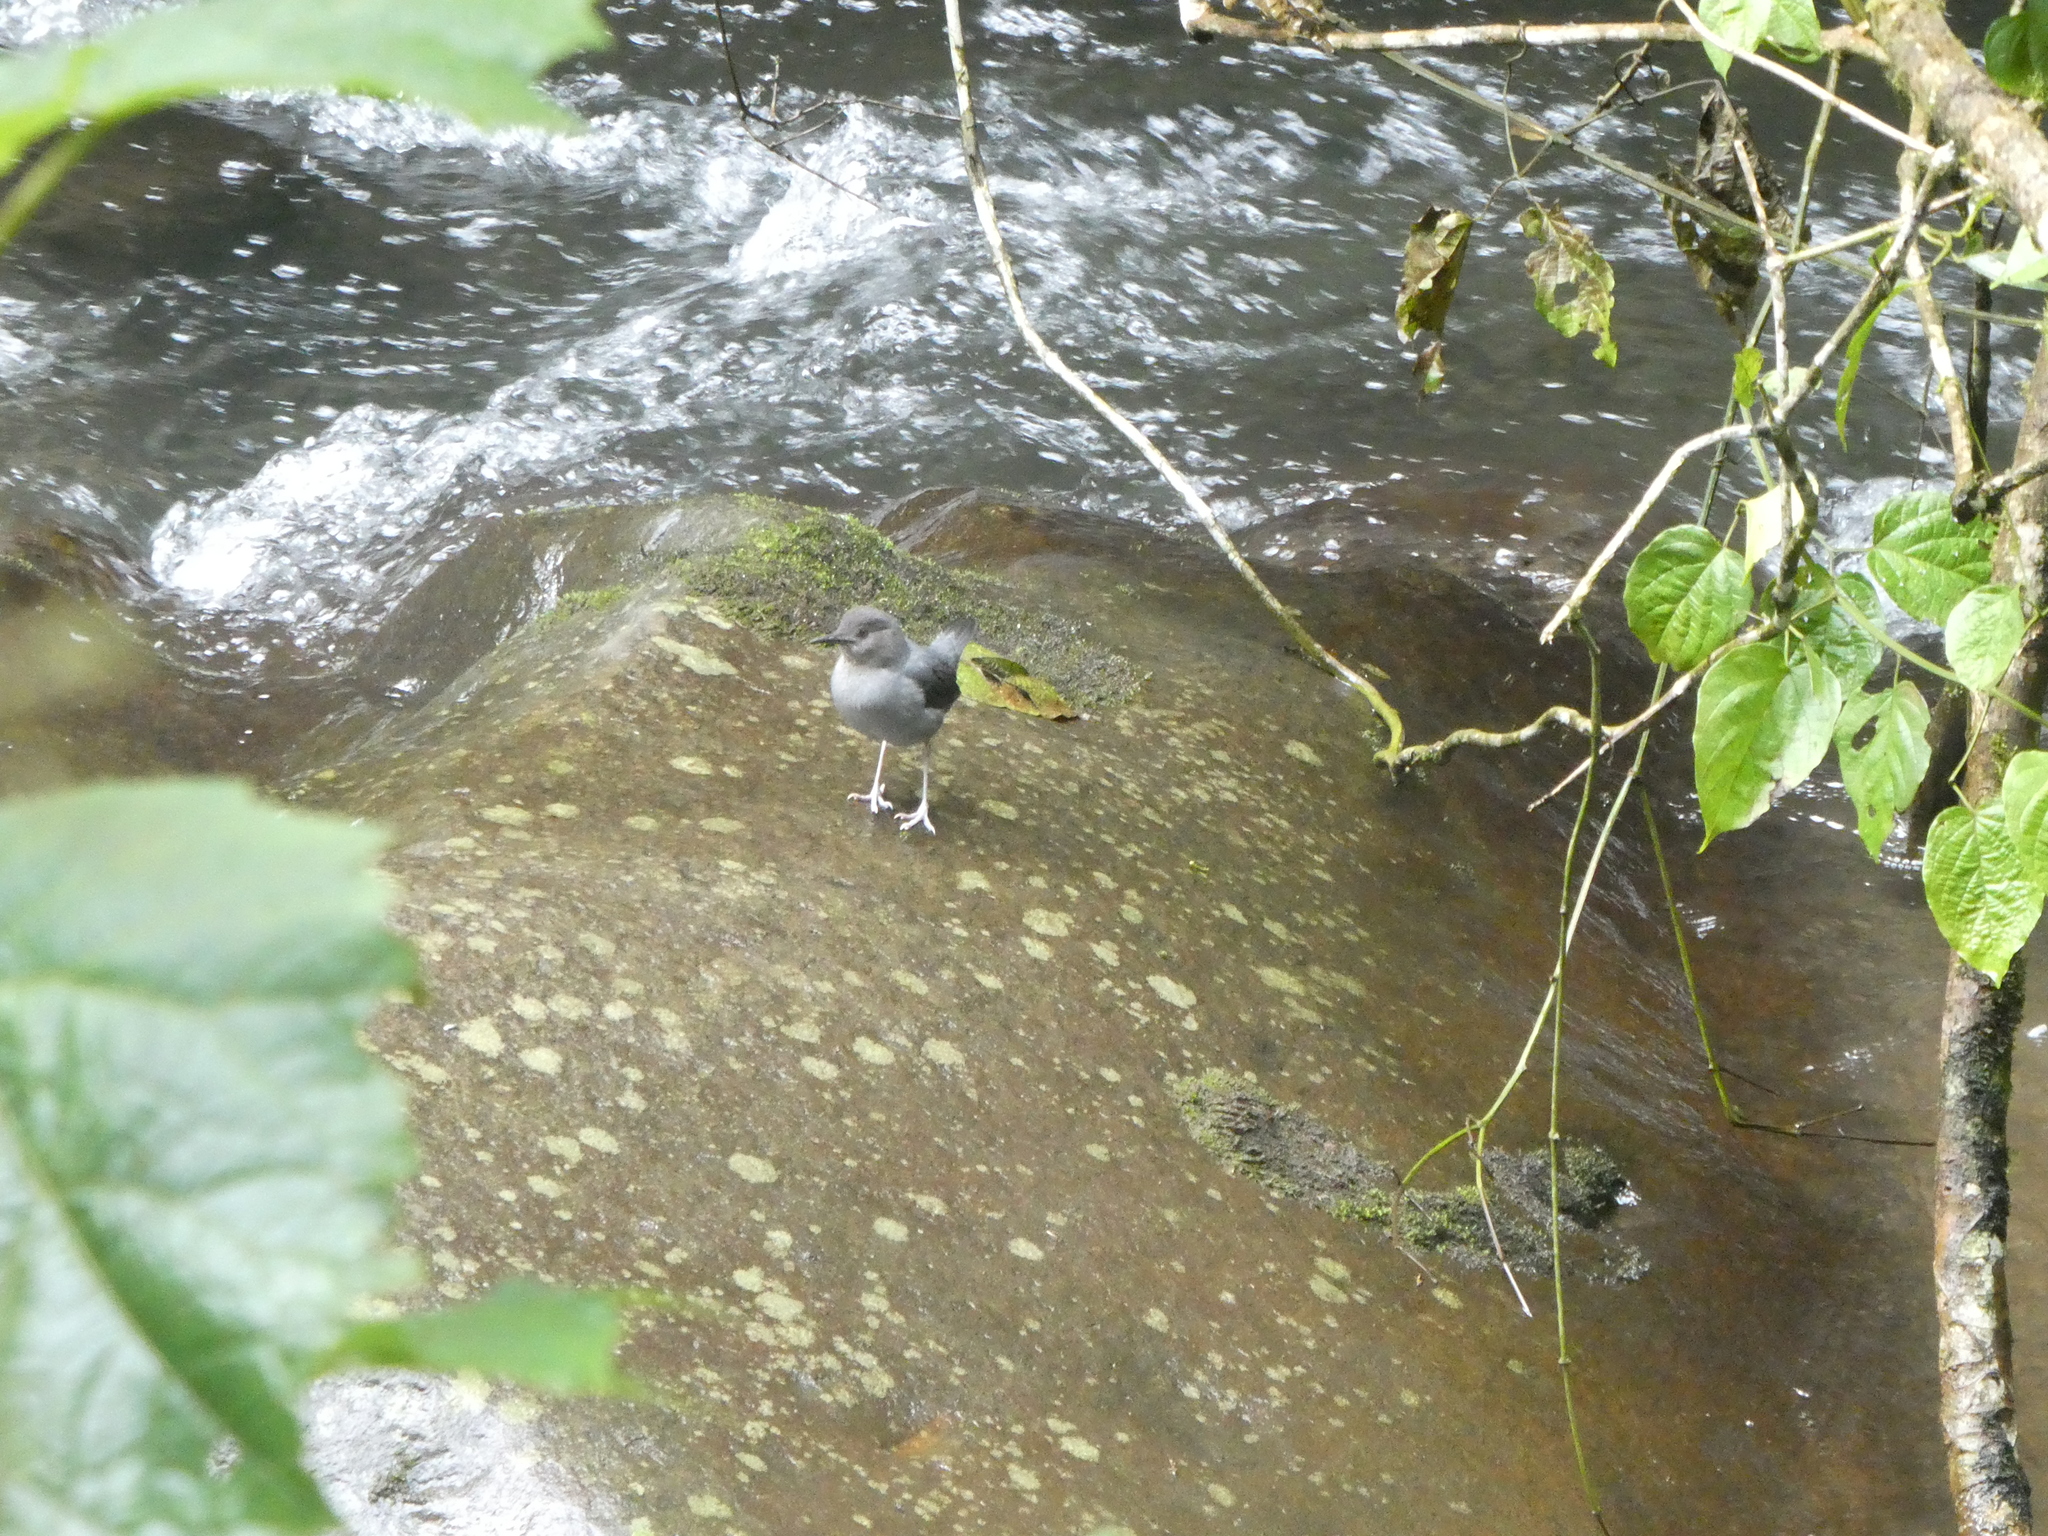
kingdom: Animalia
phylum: Chordata
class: Aves
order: Passeriformes
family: Cinclidae
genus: Cinclus
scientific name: Cinclus mexicanus
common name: American dipper
